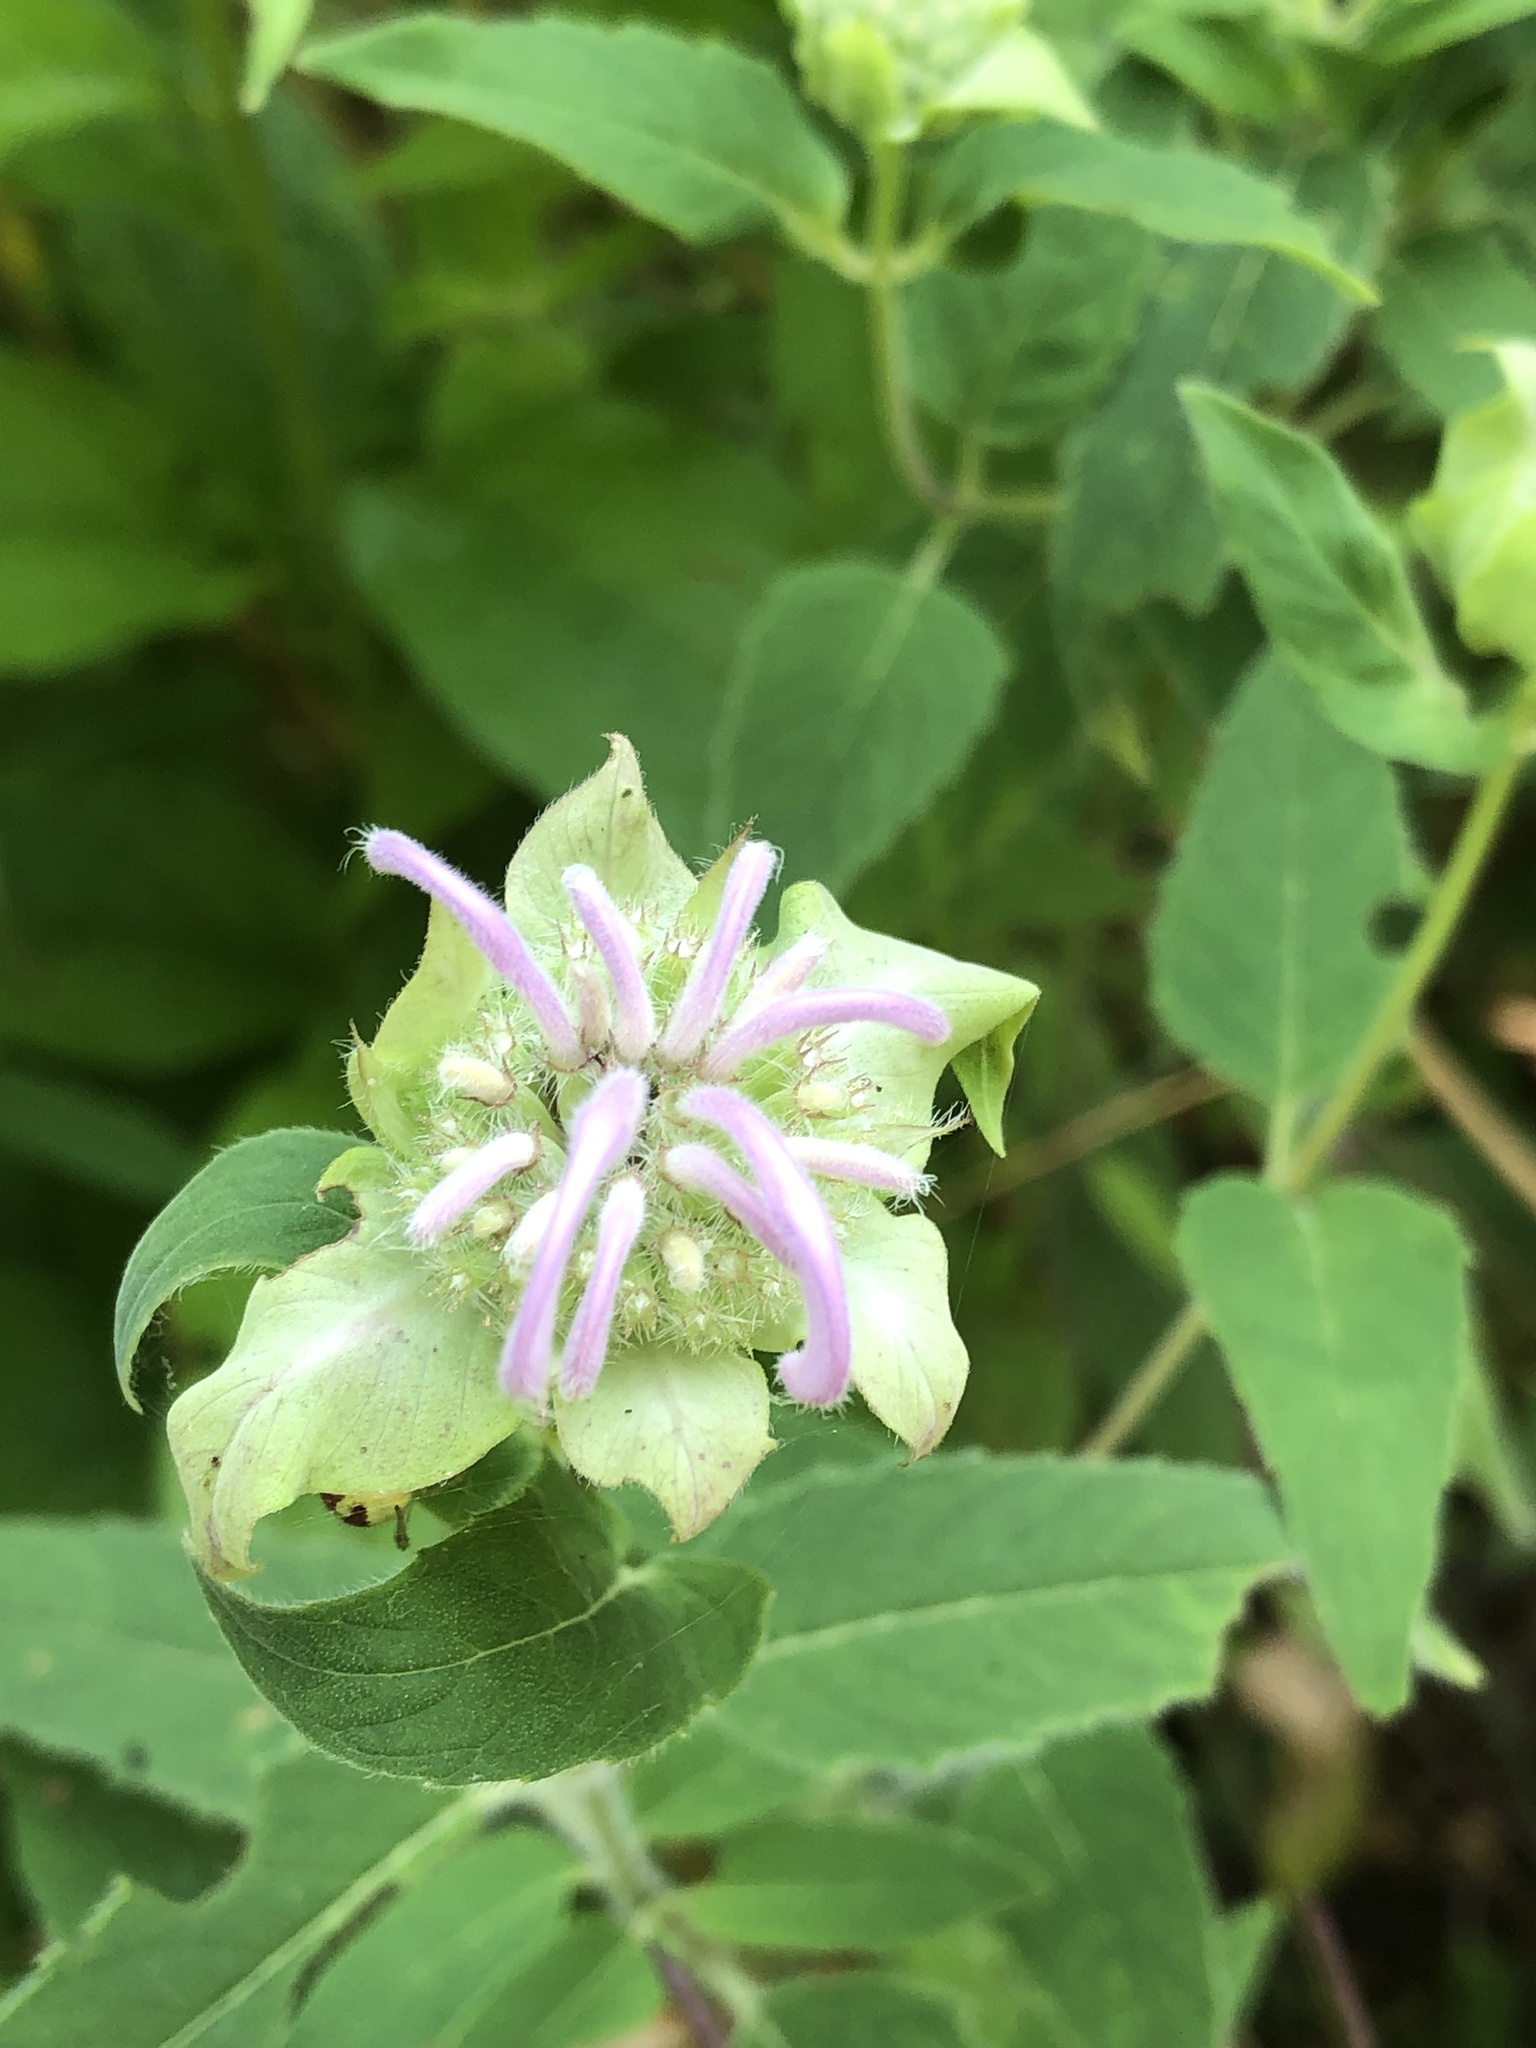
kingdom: Plantae
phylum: Tracheophyta
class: Magnoliopsida
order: Lamiales
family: Lamiaceae
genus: Monarda
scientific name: Monarda fistulosa
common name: Purple beebalm
